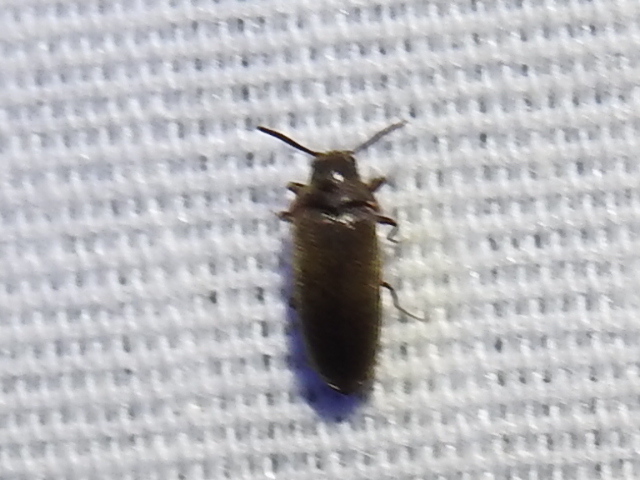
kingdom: Animalia
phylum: Arthropoda
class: Insecta
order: Coleoptera
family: Throscidae
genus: Pactopus
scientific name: Pactopus hornii
